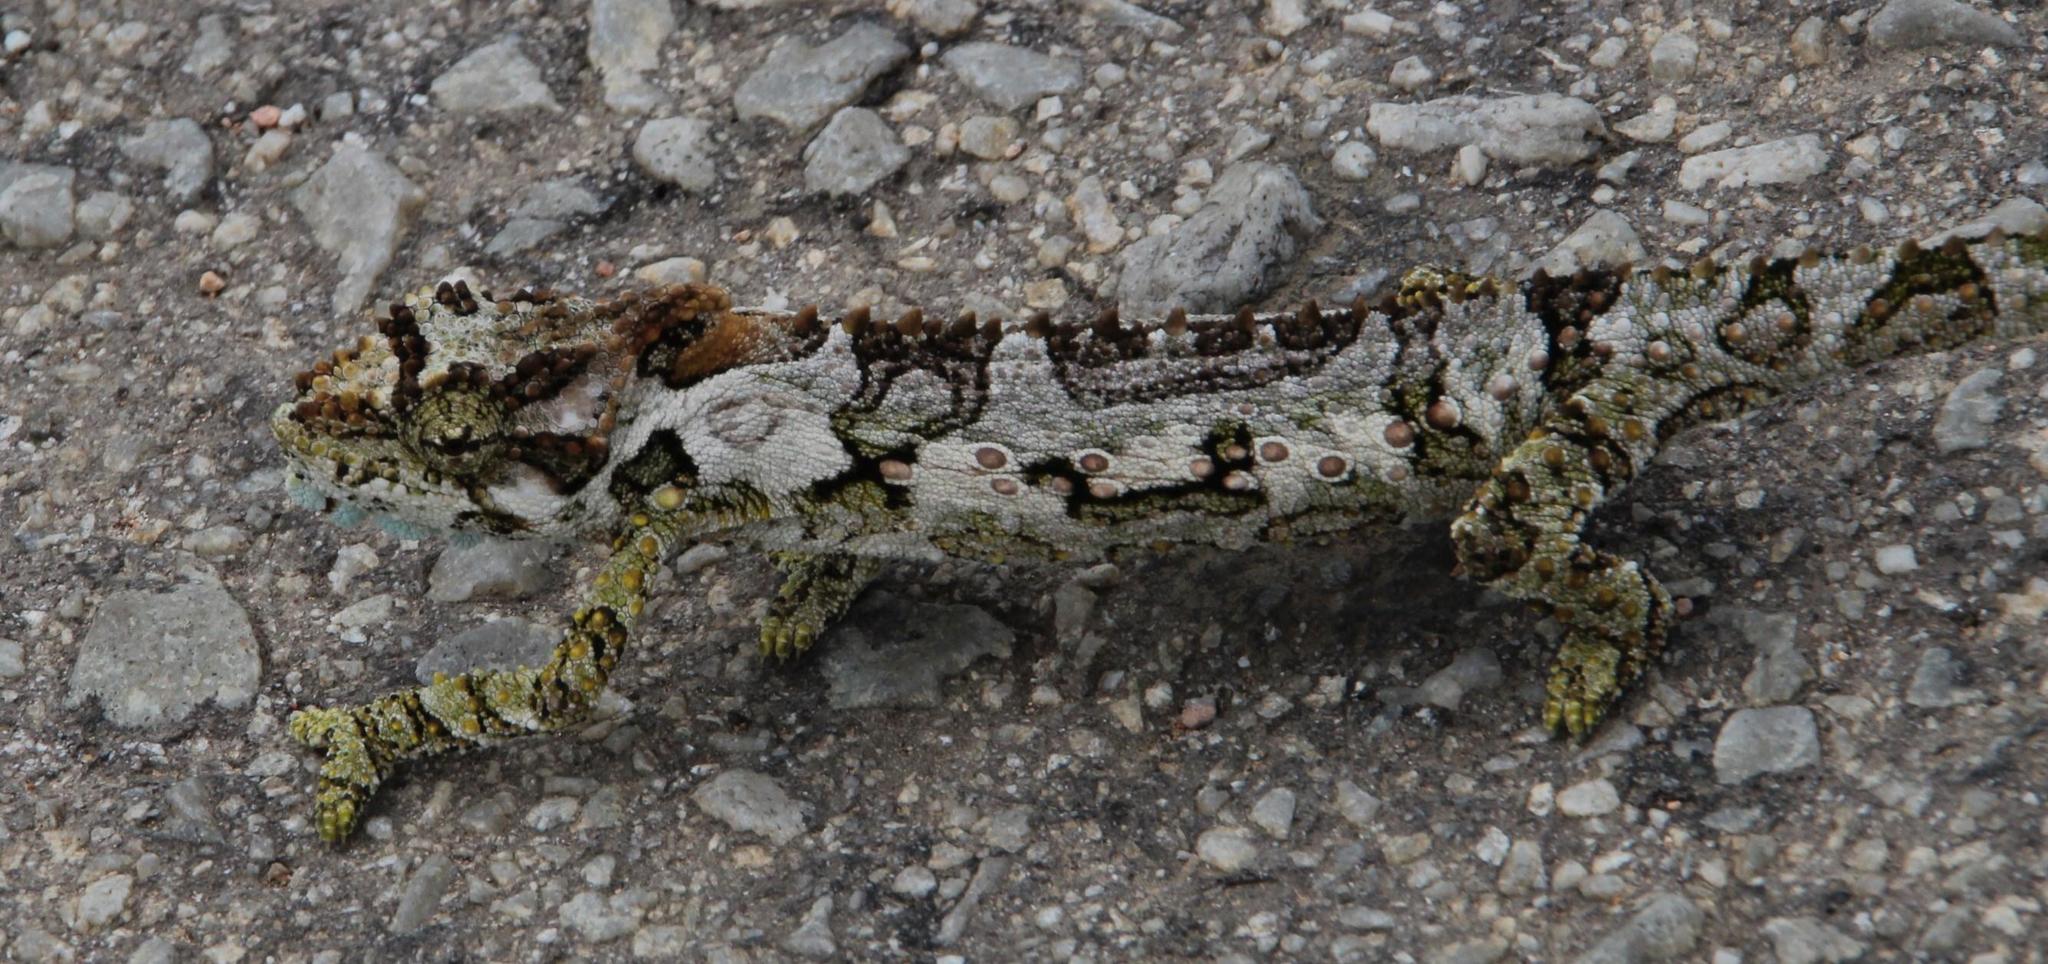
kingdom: Animalia
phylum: Chordata
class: Squamata
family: Chamaeleonidae
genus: Bradypodion
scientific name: Bradypodion ventrale
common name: Eastern cape dwarf chameleon
